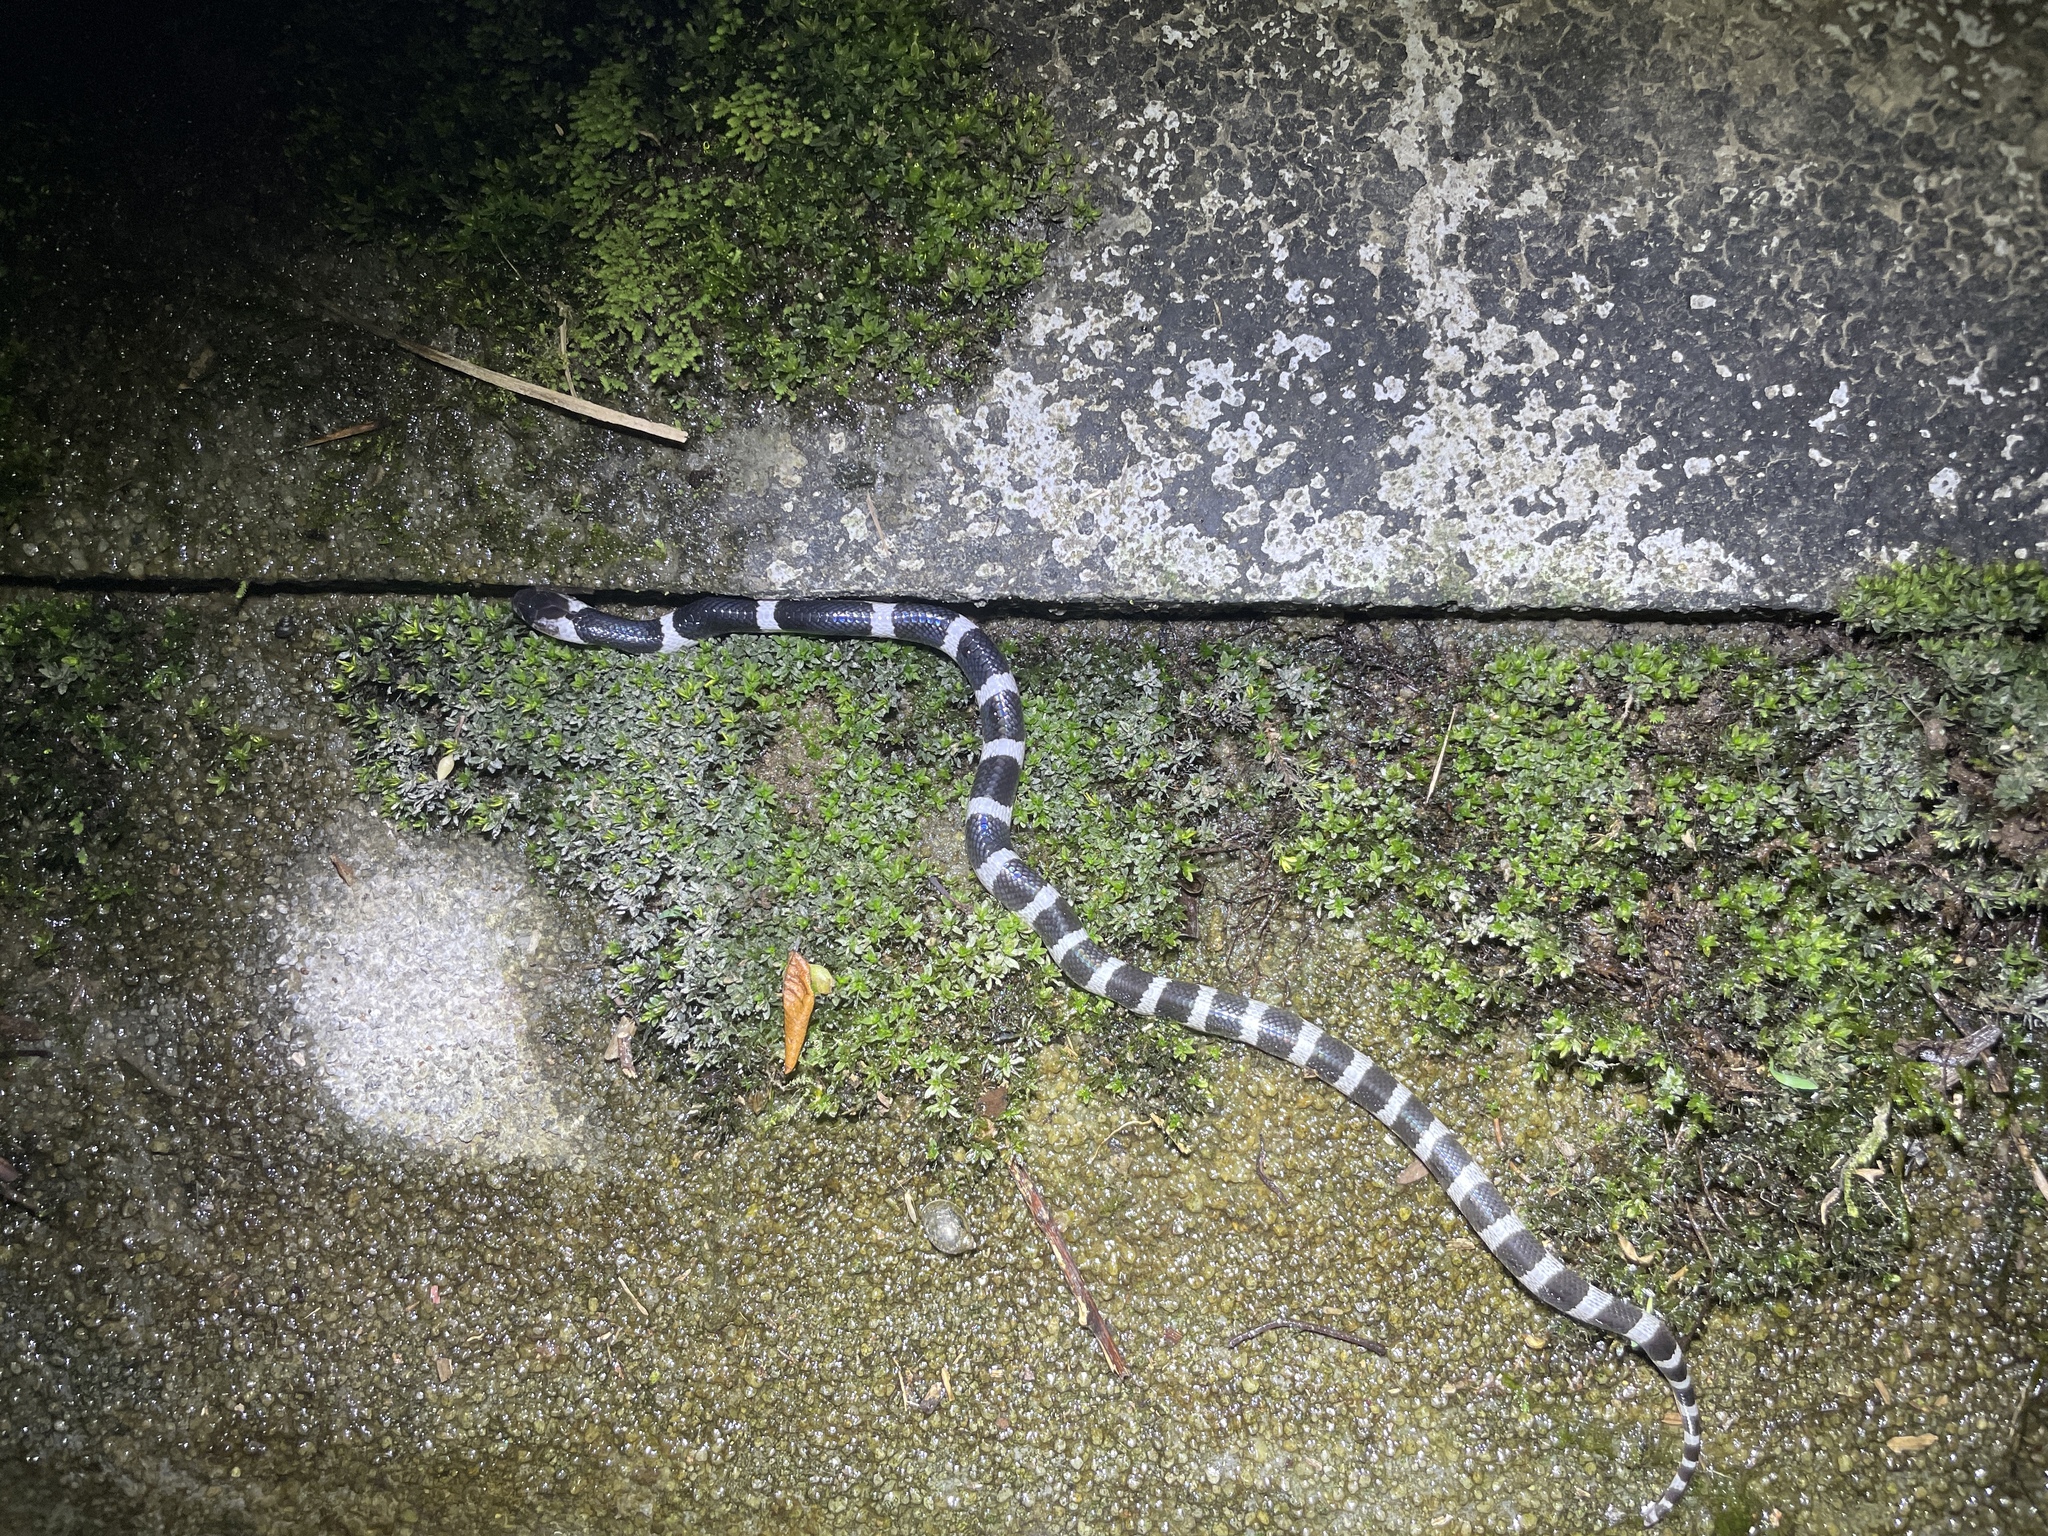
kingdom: Animalia
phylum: Chordata
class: Squamata
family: Elapidae
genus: Bungarus
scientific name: Bungarus multicinctus
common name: Many-banded krait
